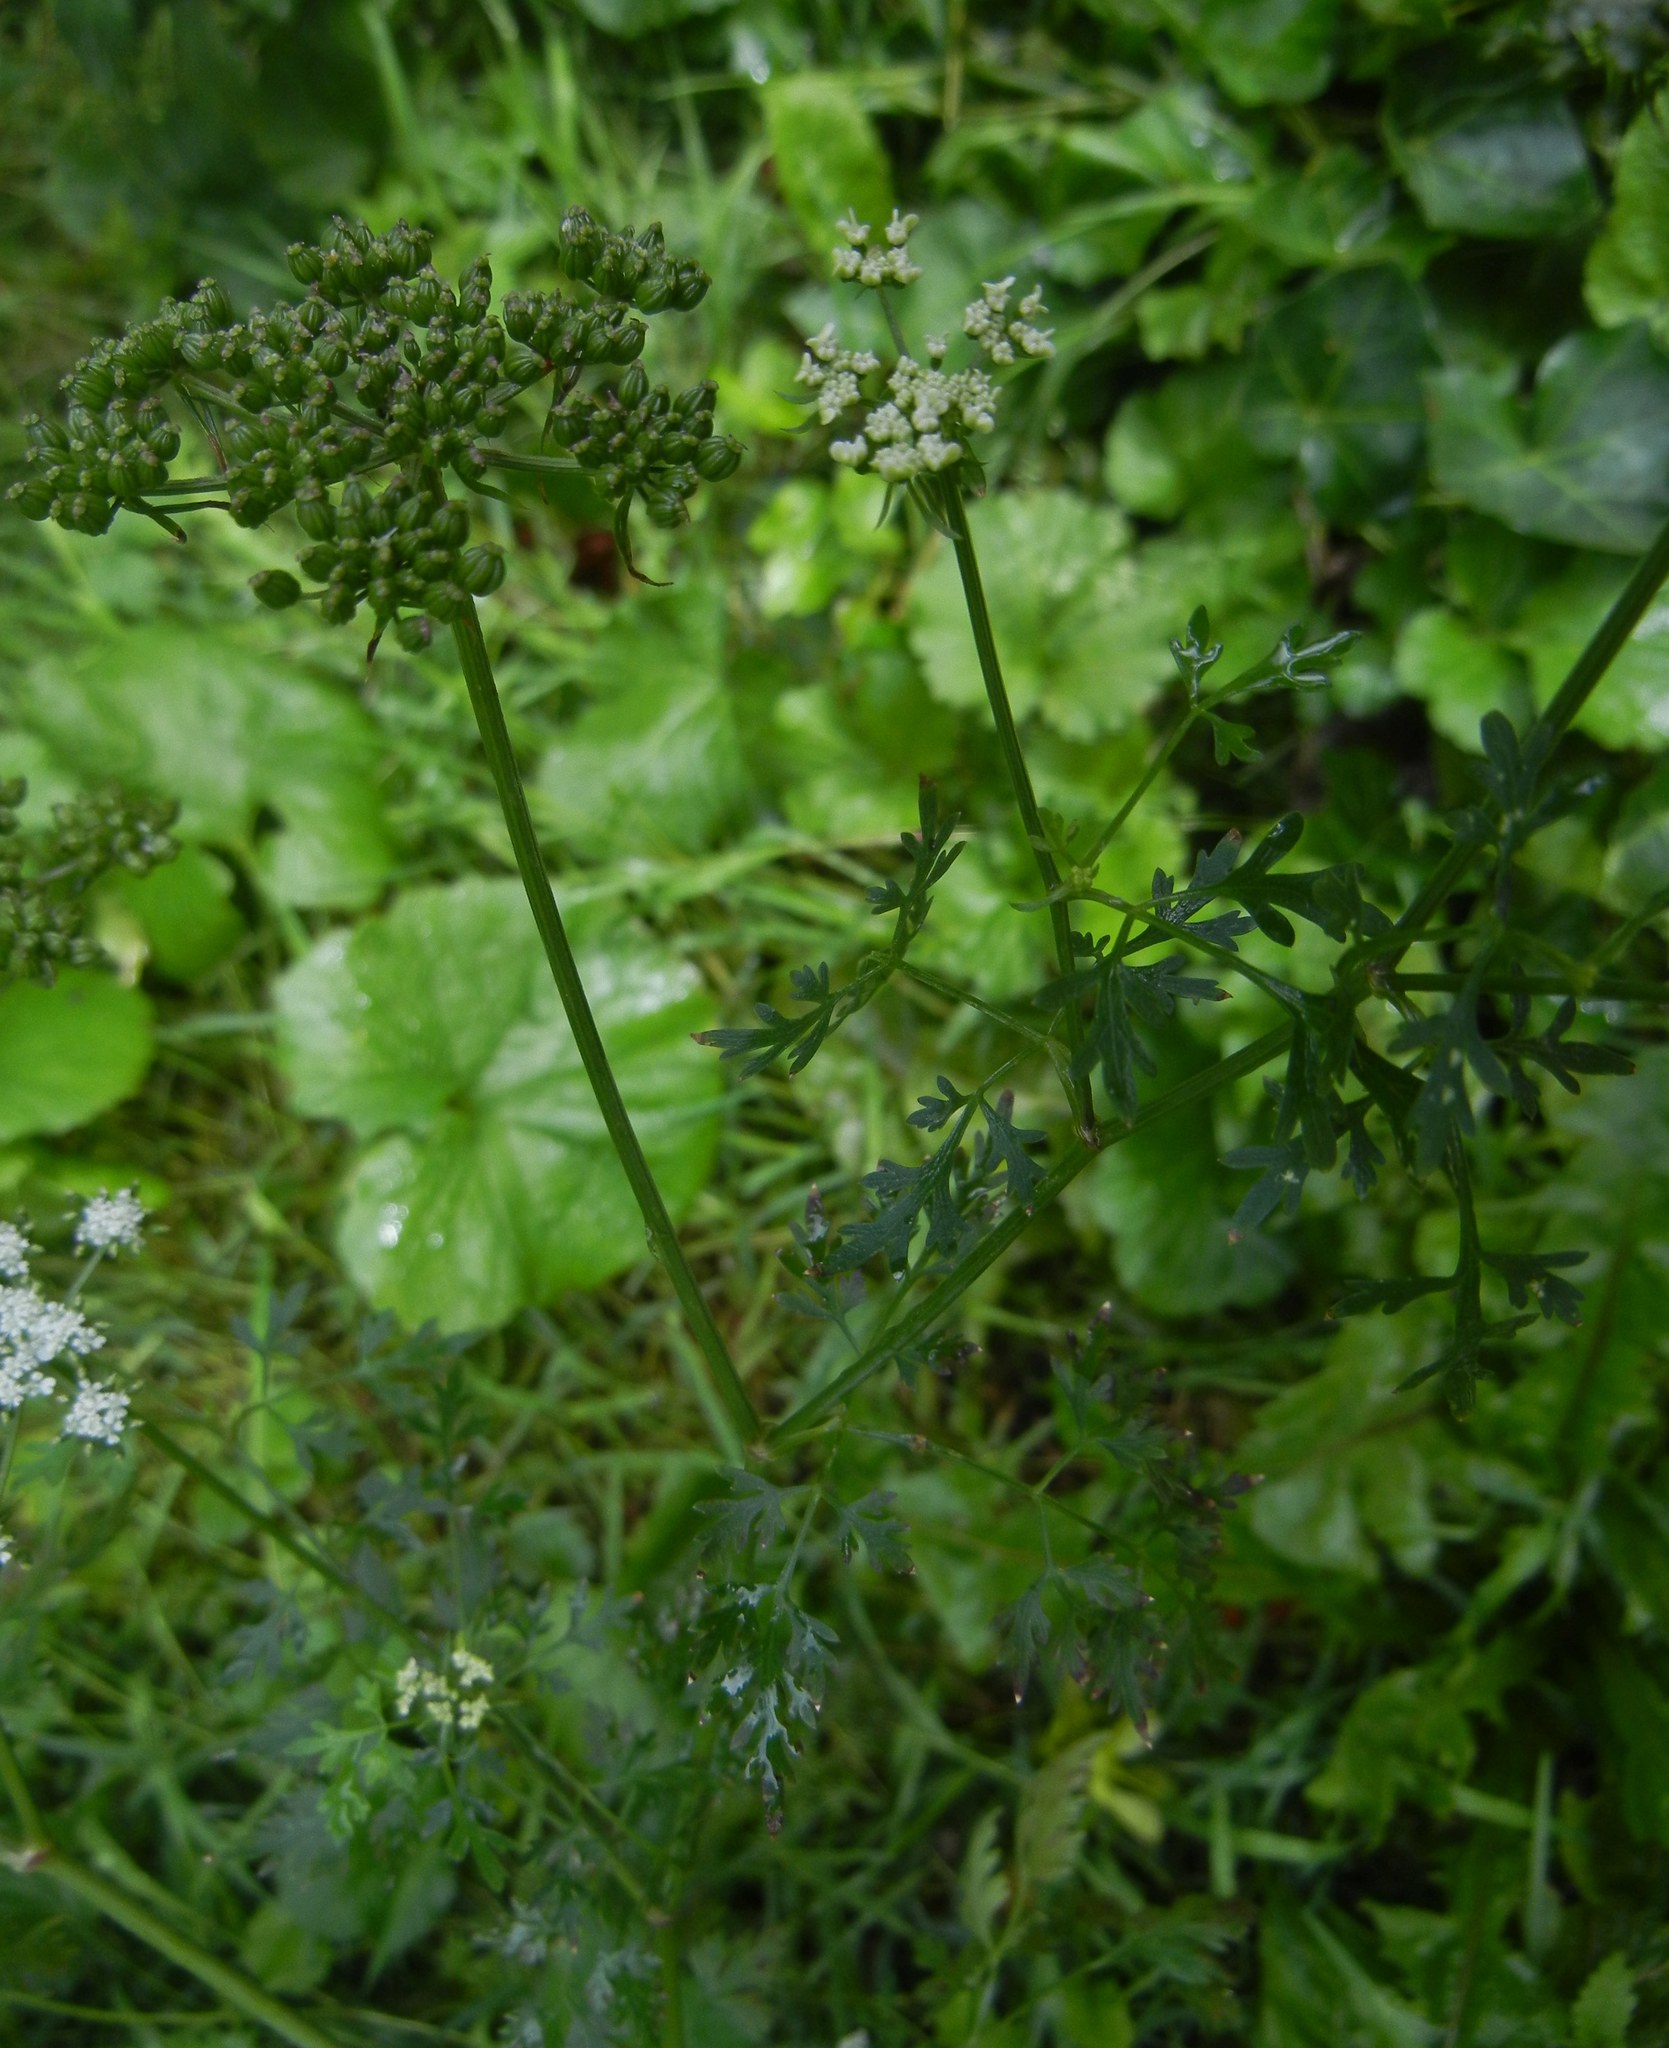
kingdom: Plantae
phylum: Tracheophyta
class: Magnoliopsida
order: Apiales
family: Apiaceae
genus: Aethusa
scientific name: Aethusa cynapium
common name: Fool's parsley
